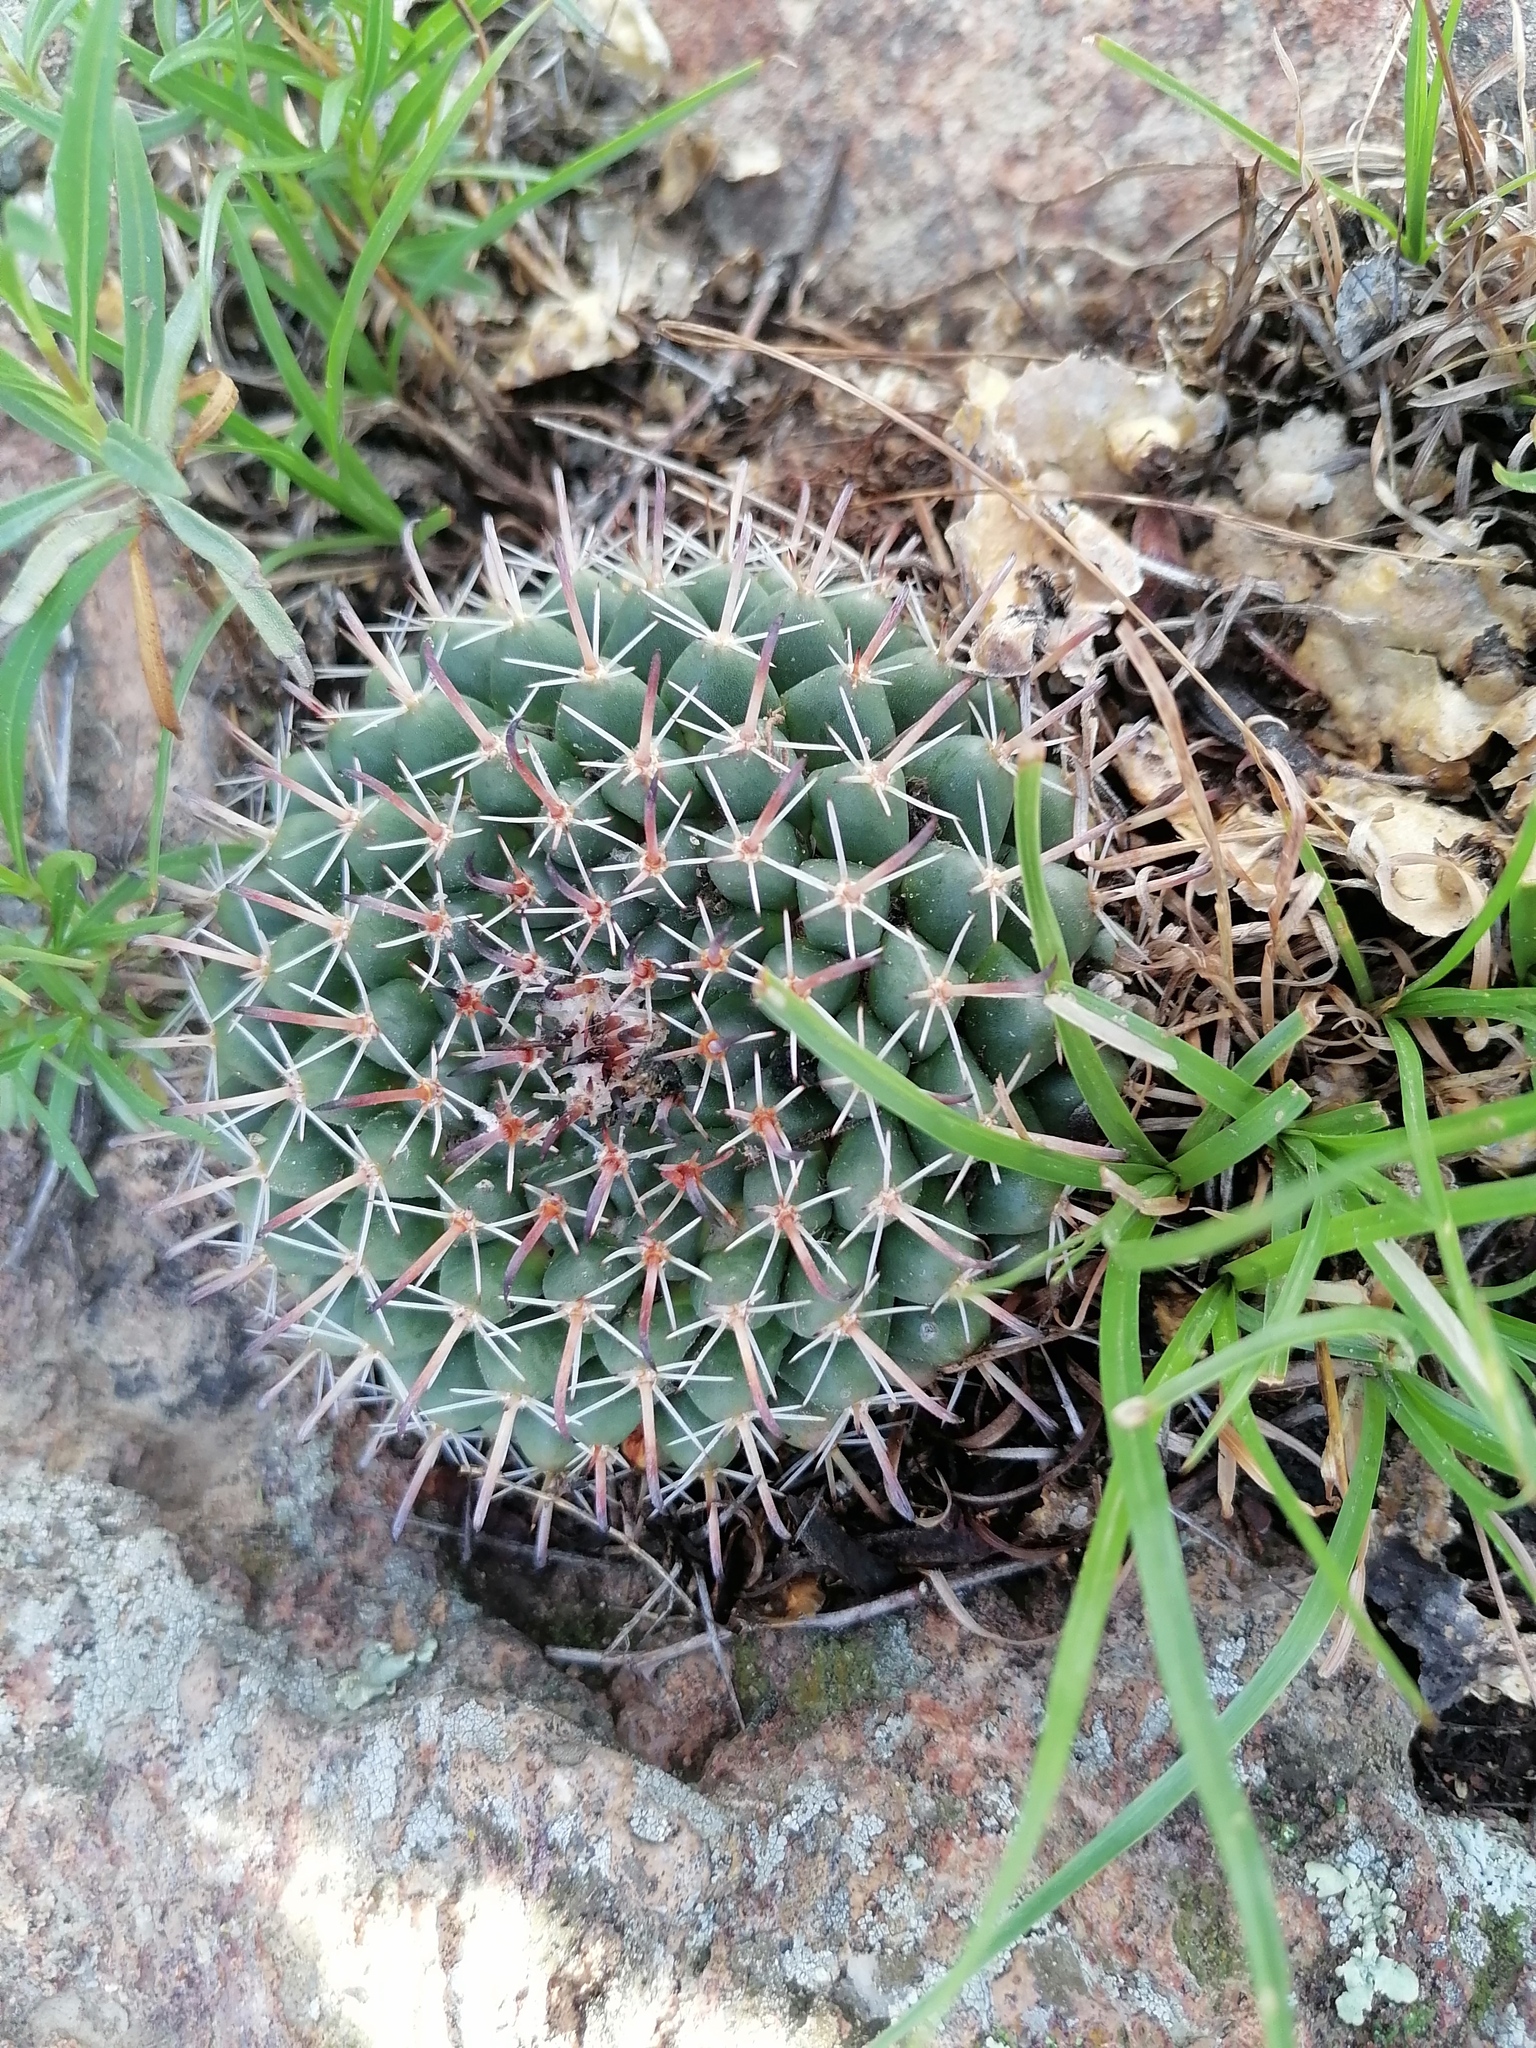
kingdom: Plantae
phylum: Tracheophyta
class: Magnoliopsida
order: Caryophyllales
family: Cactaceae
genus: Mammillaria
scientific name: Mammillaria uncinata
